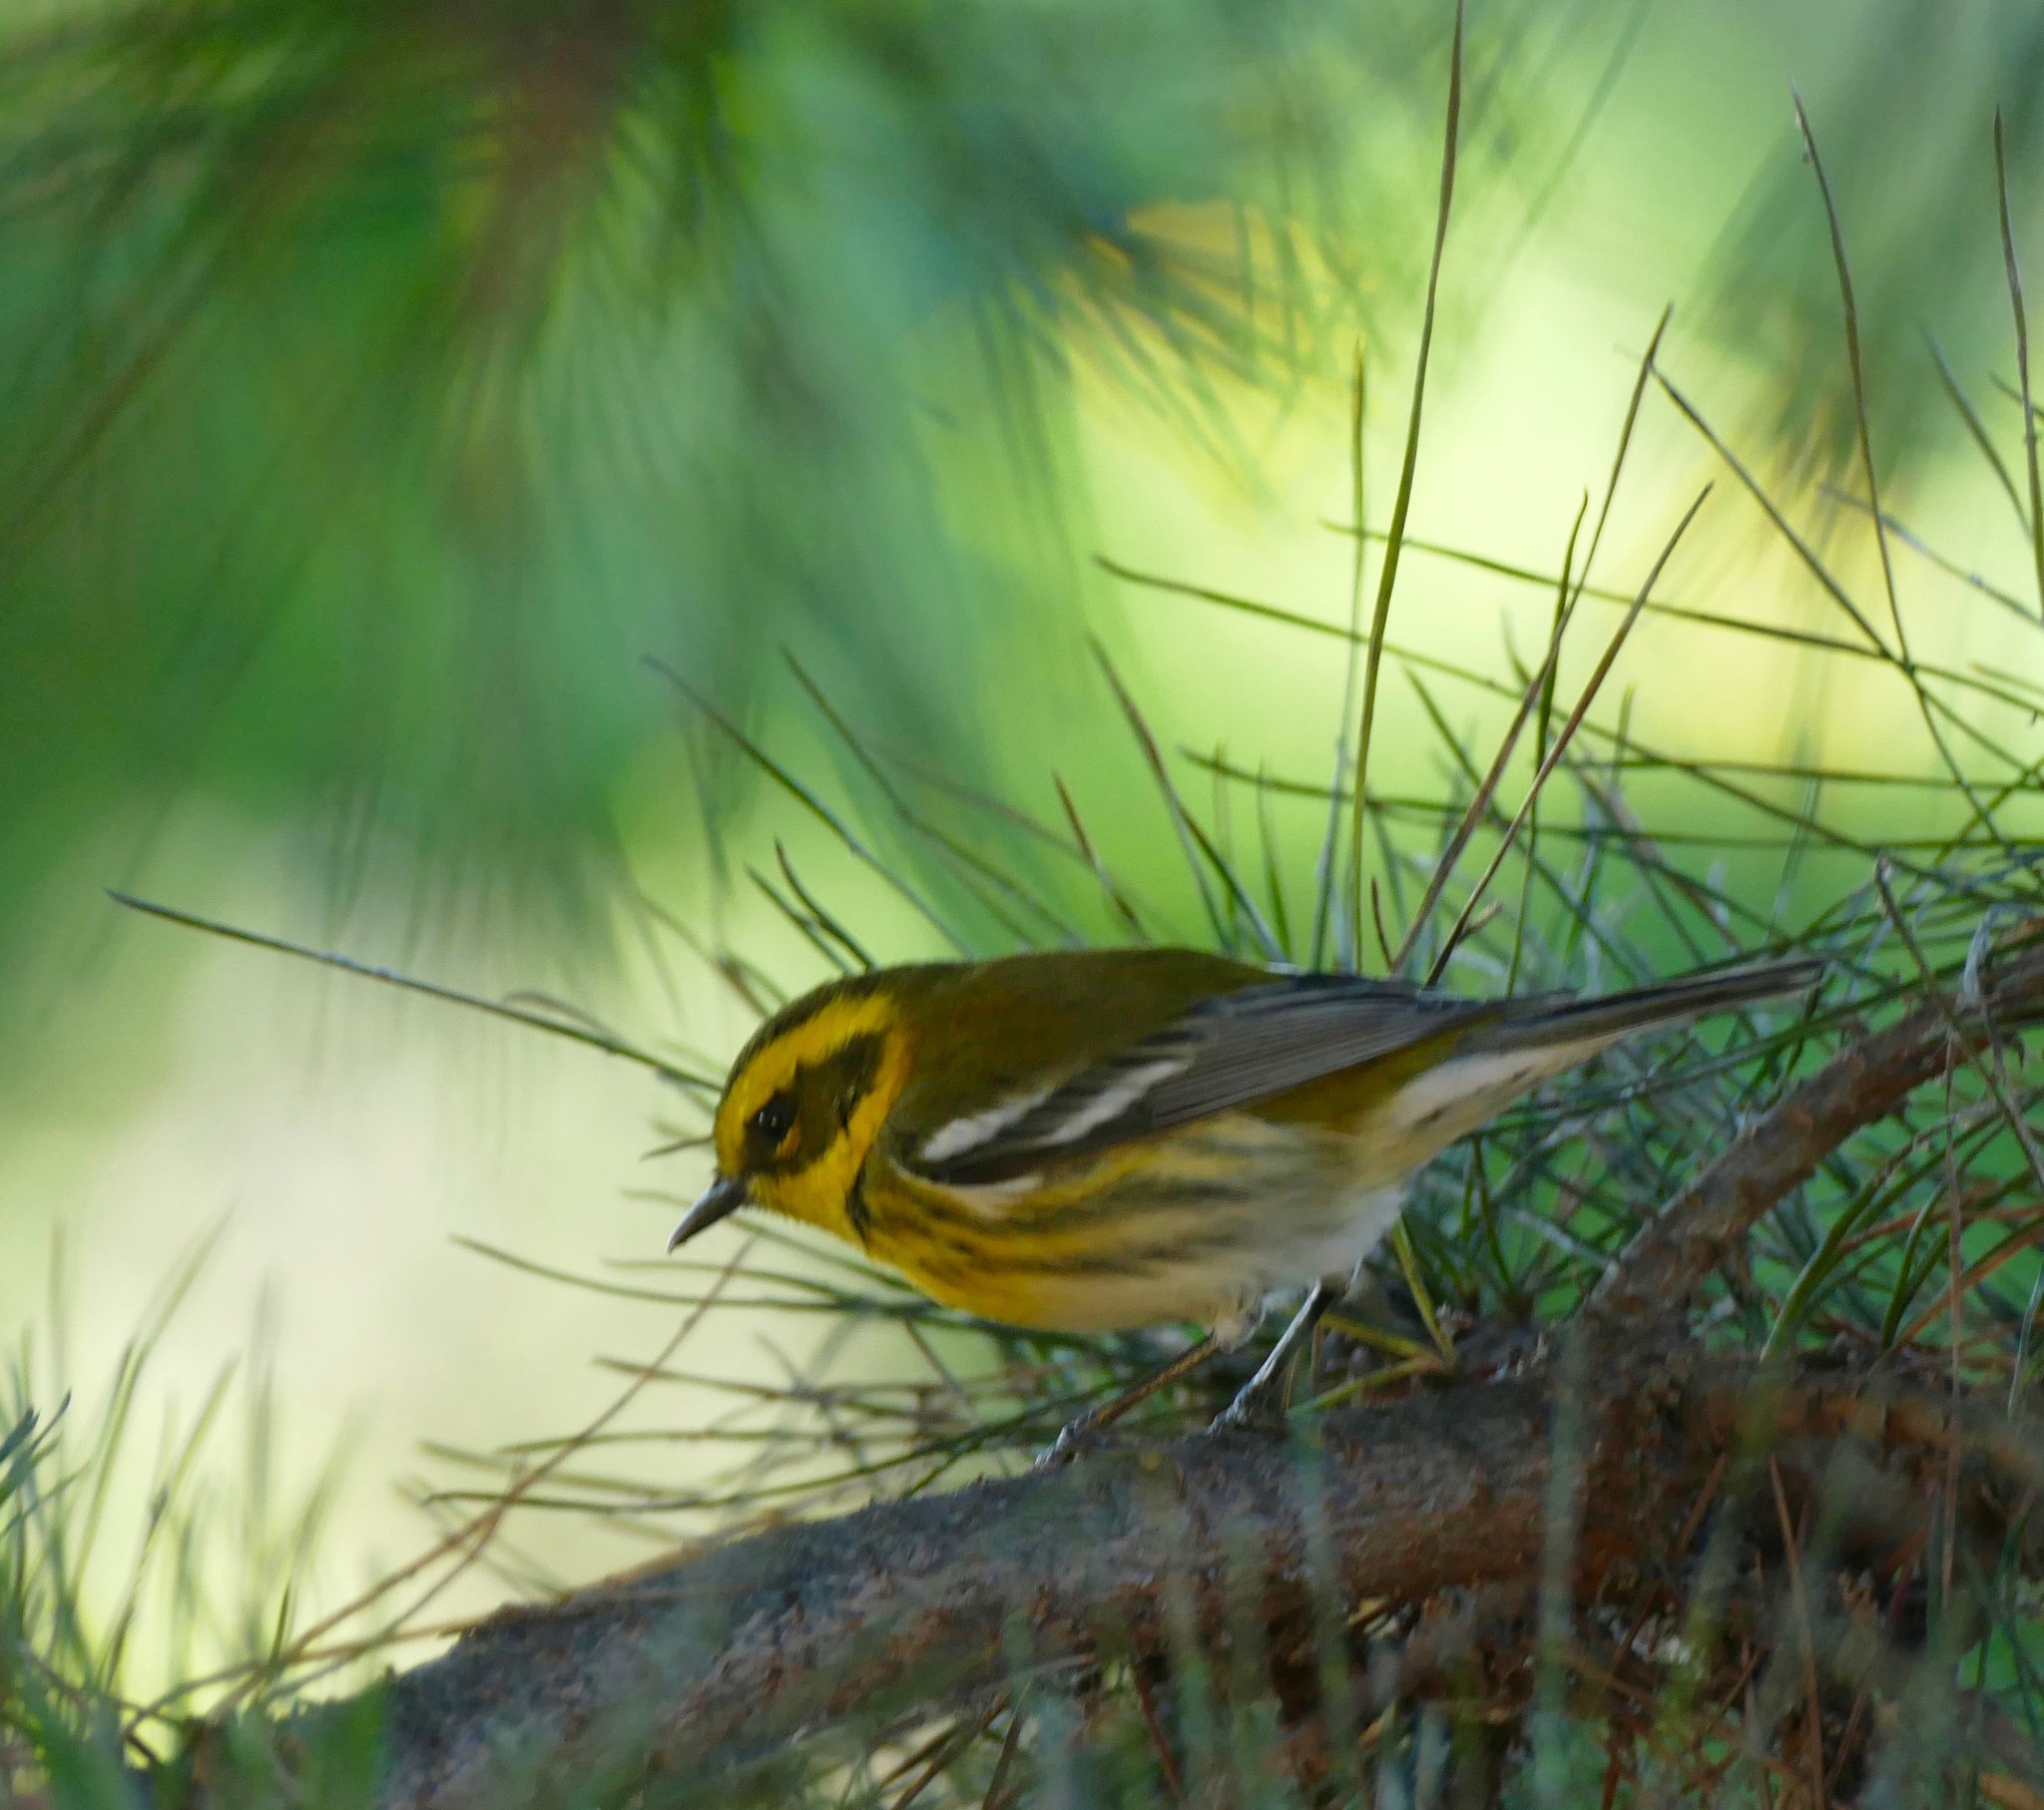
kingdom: Animalia
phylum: Chordata
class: Aves
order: Passeriformes
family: Parulidae
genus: Setophaga
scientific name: Setophaga townsendi
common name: Townsend's warbler
